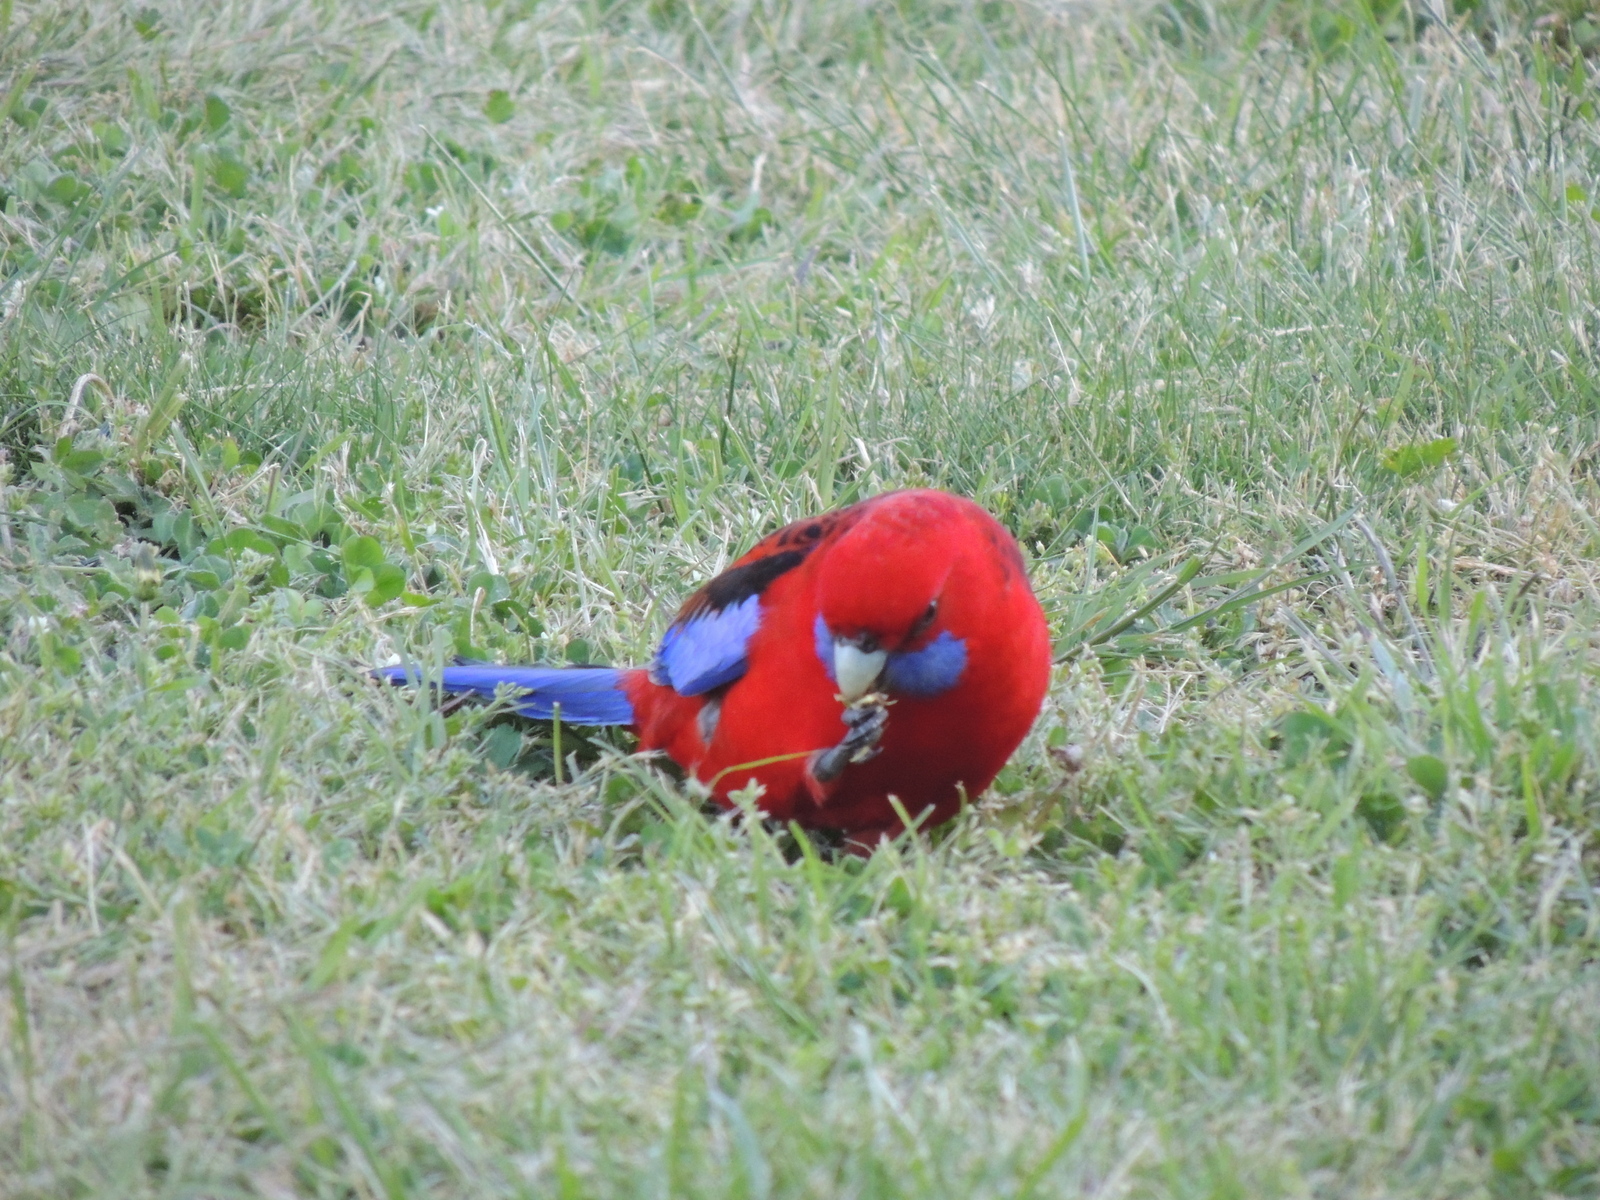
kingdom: Animalia
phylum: Chordata
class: Aves
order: Psittaciformes
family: Psittacidae
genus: Platycercus
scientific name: Platycercus elegans
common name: Crimson rosella
